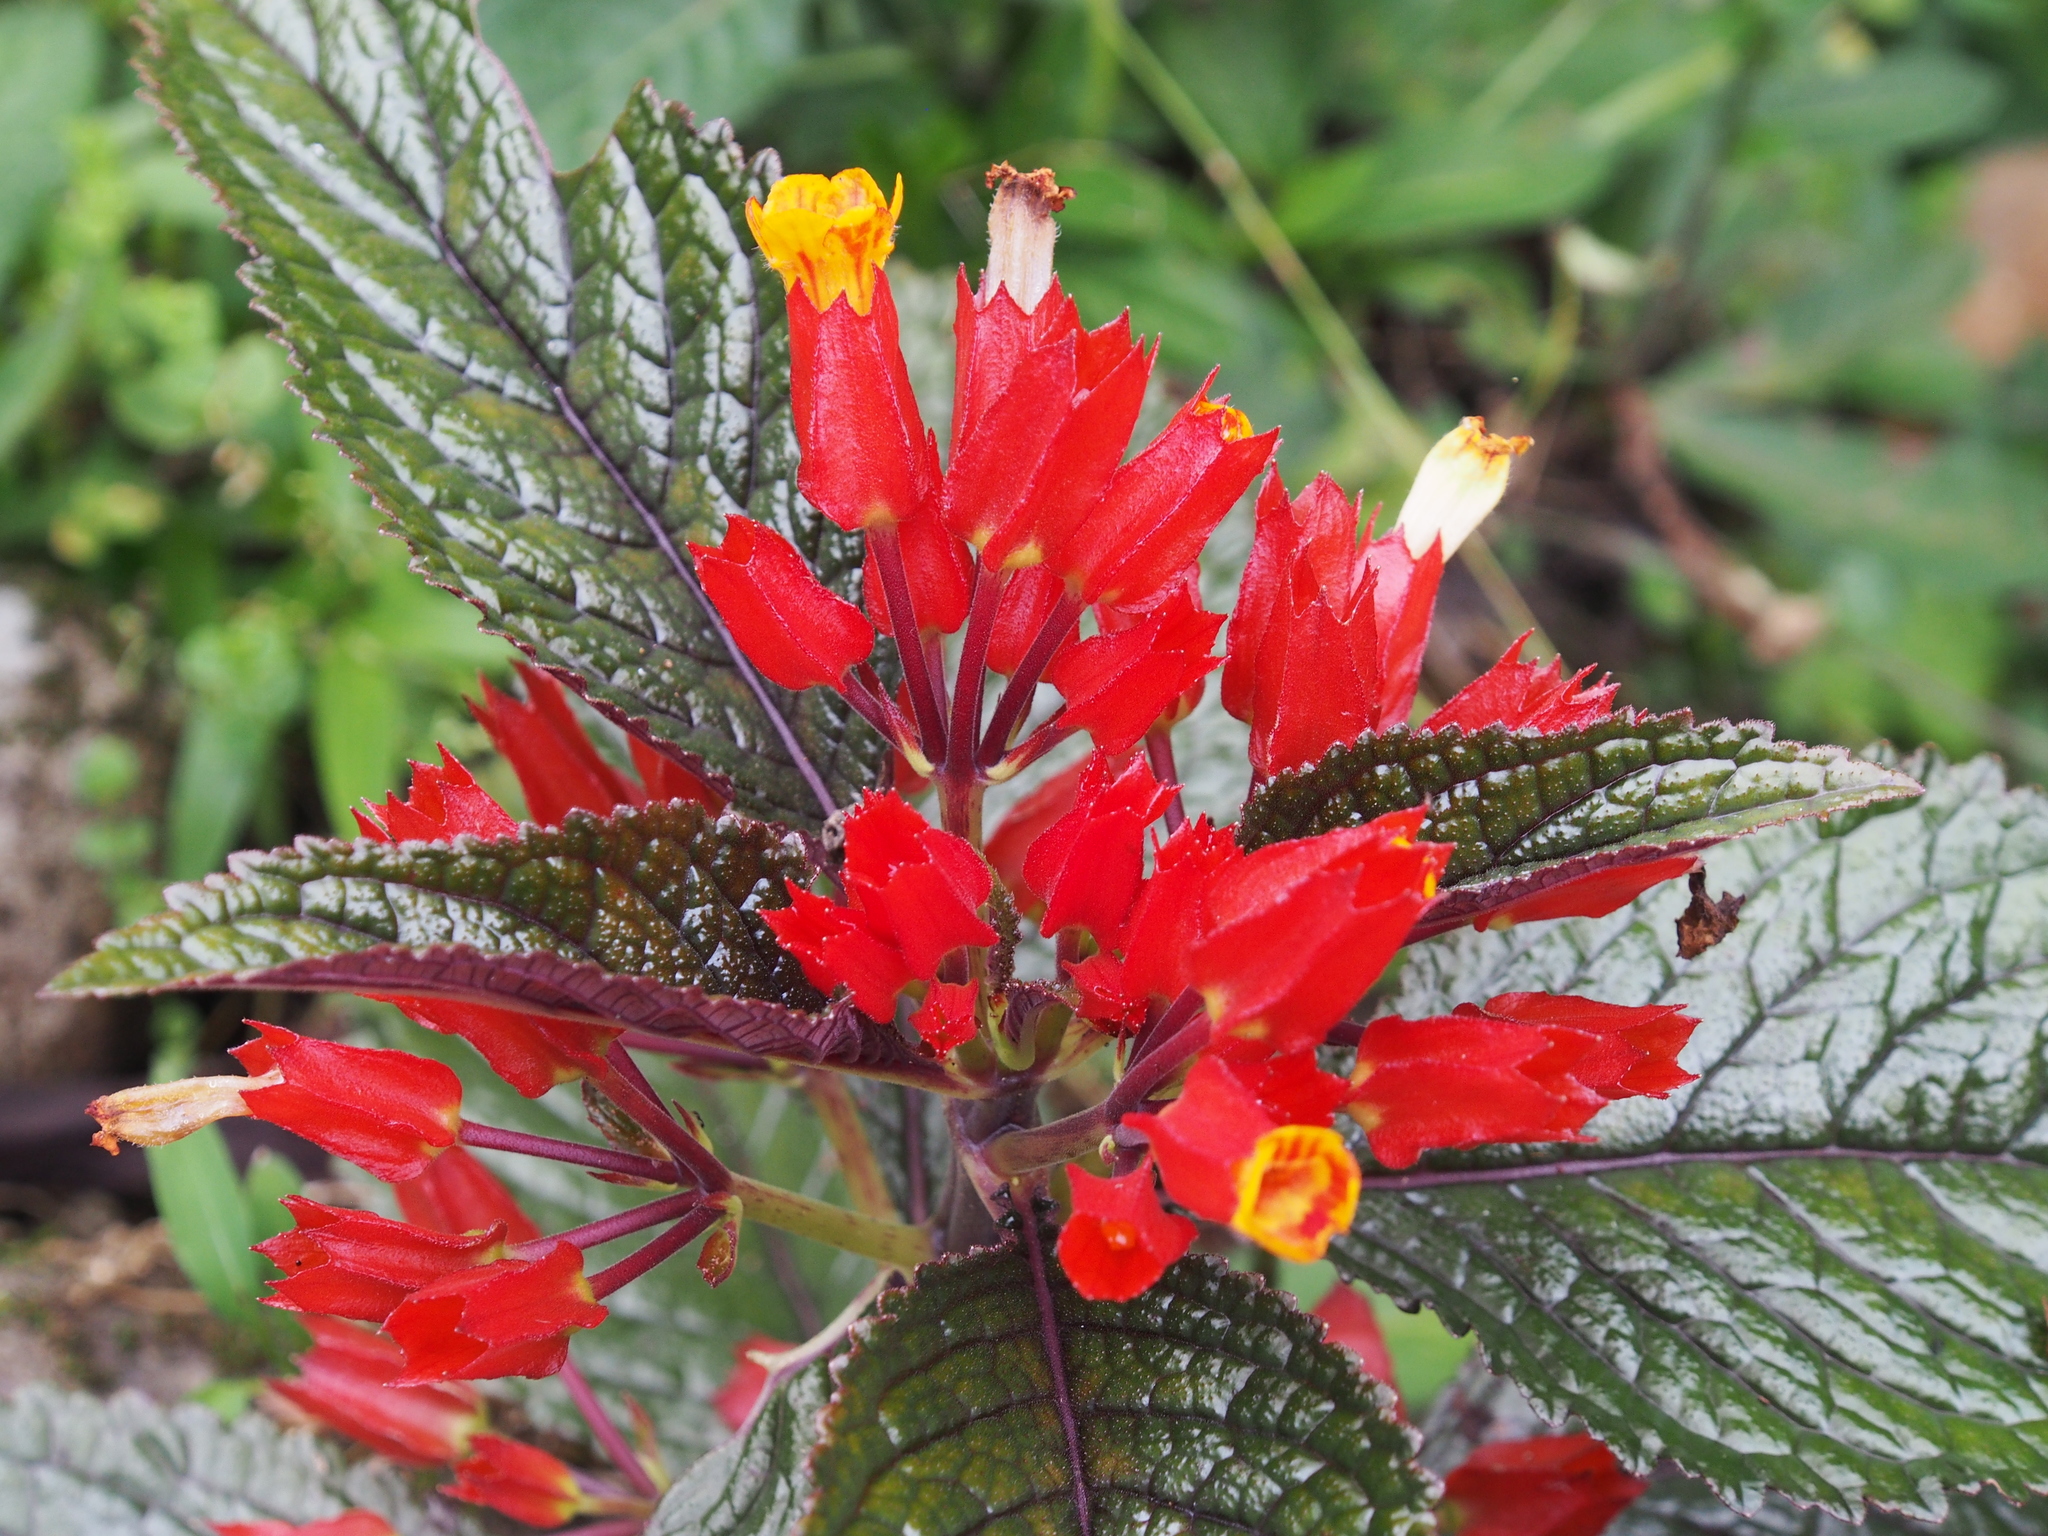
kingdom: Plantae
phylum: Tracheophyta
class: Magnoliopsida
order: Lamiales
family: Gesneriaceae
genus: Chrysothemis
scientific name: Chrysothemis pulchella
